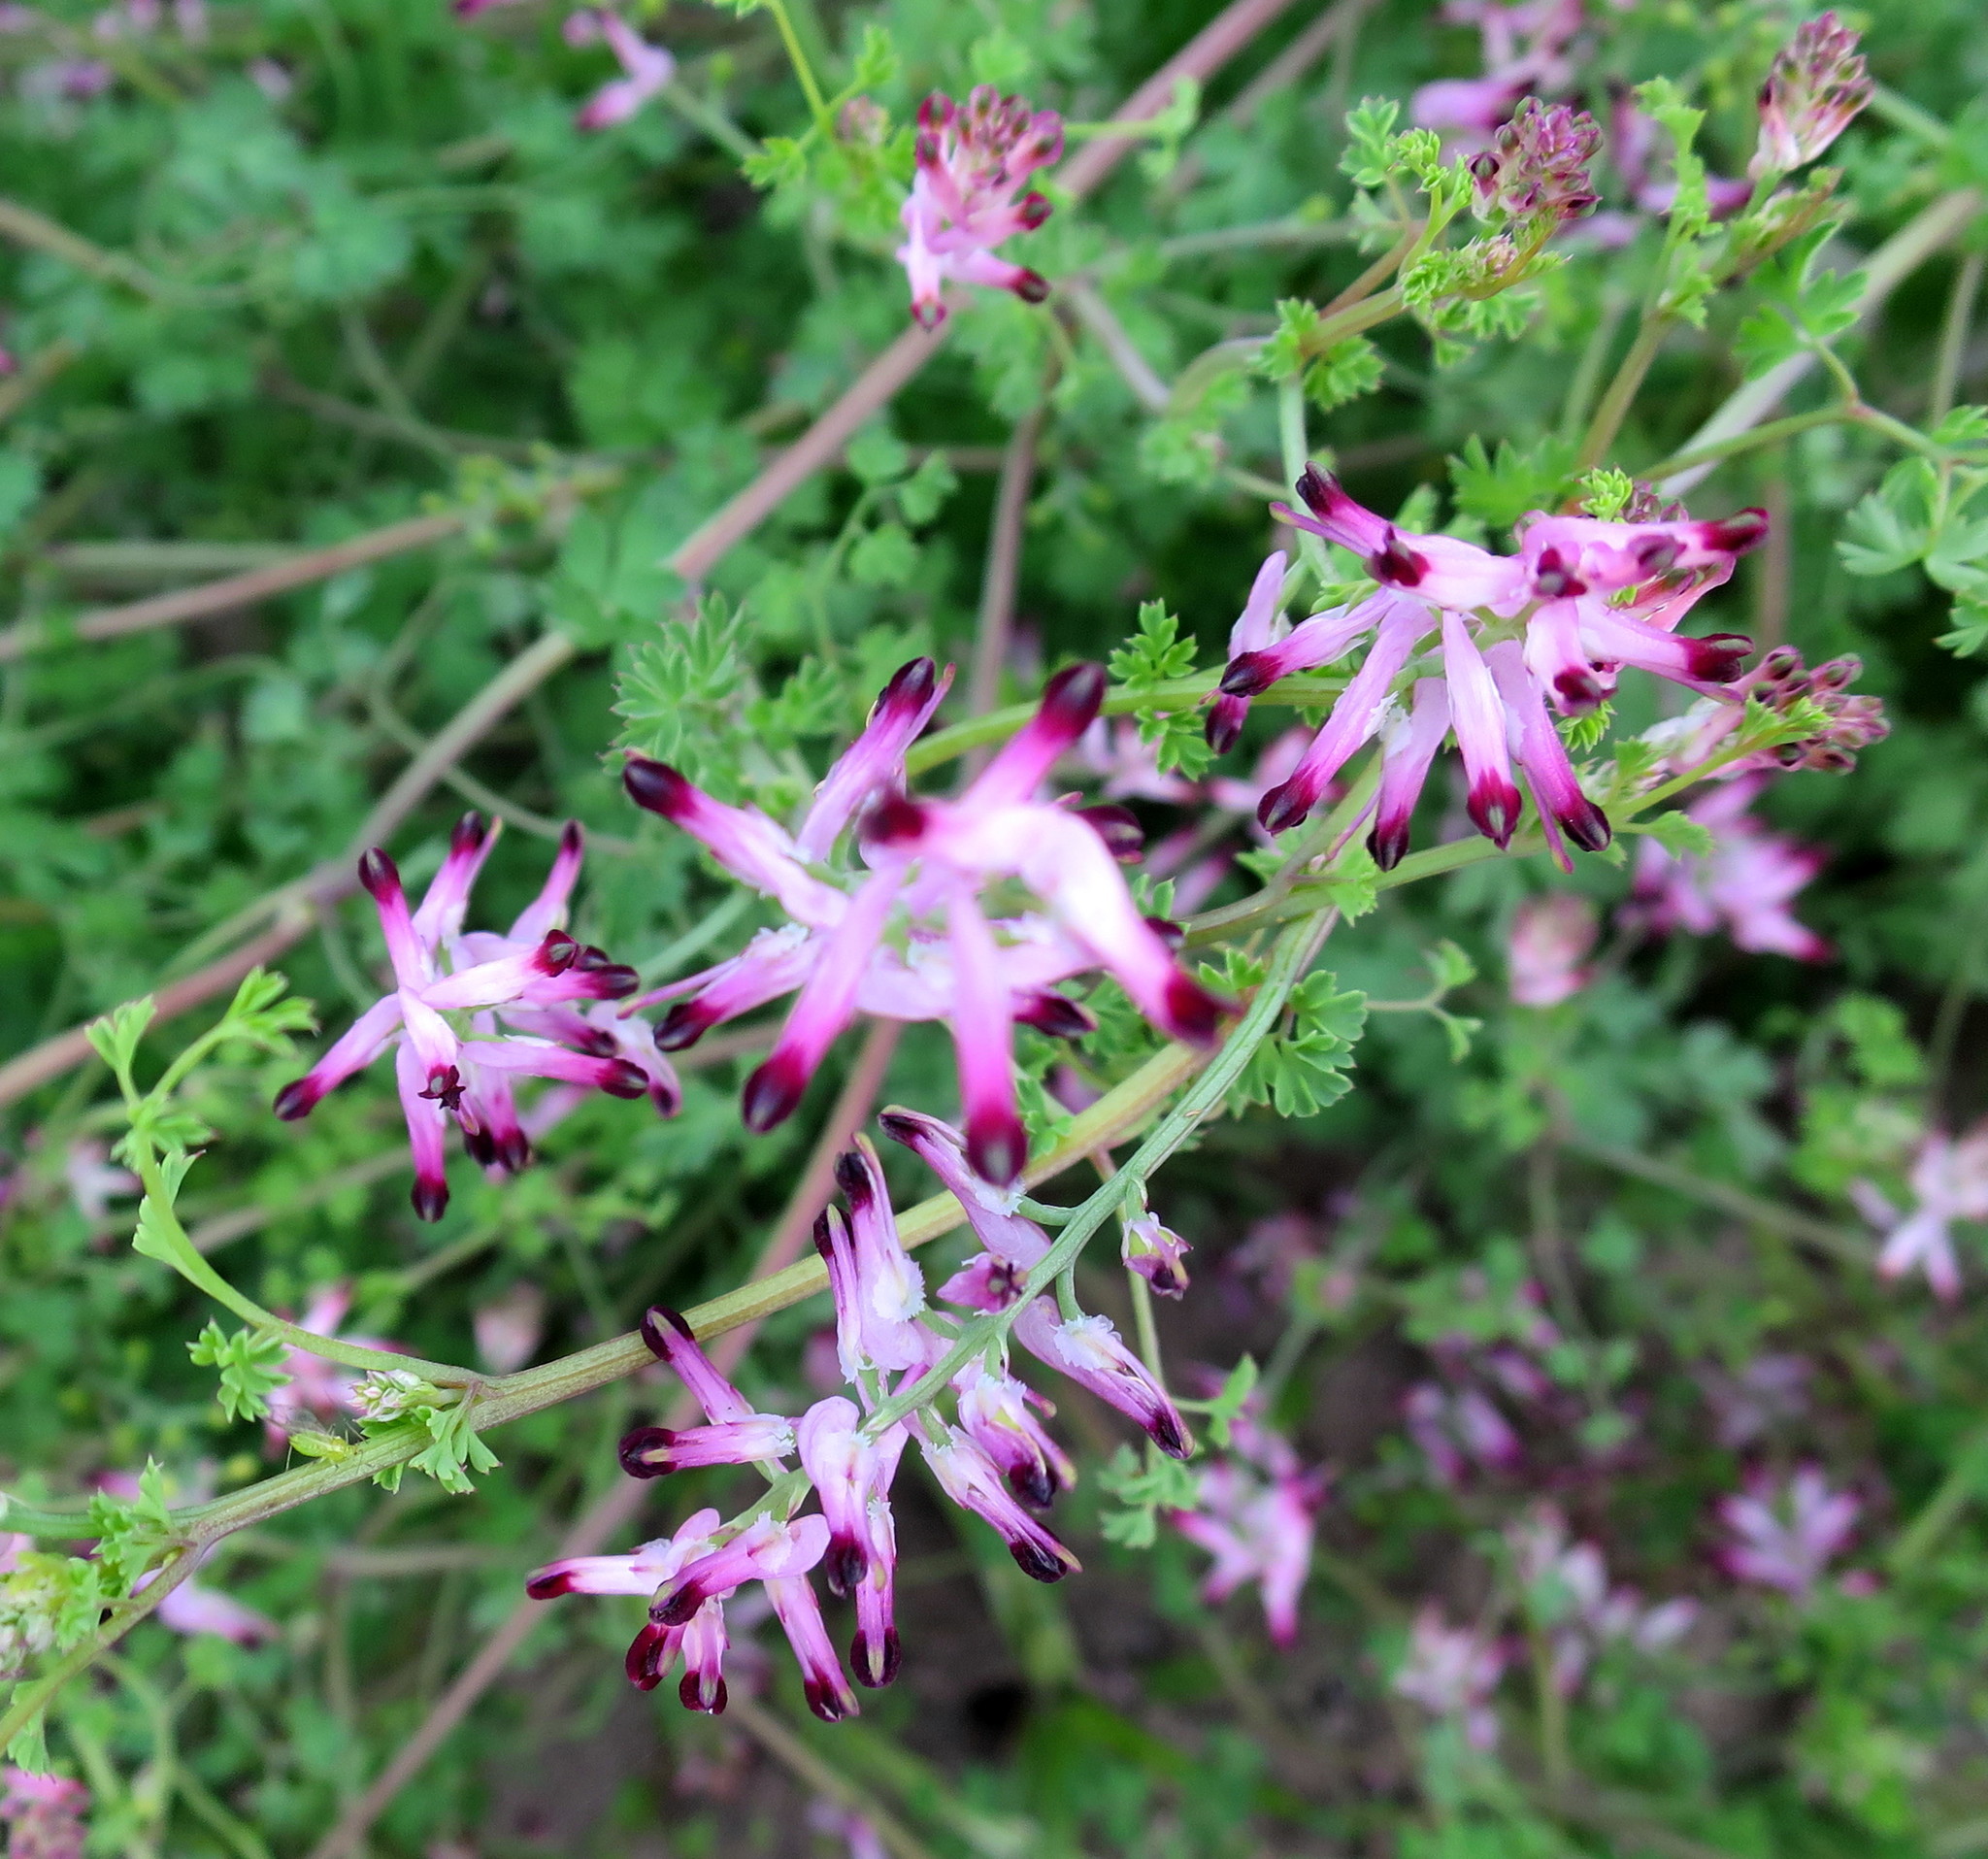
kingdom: Plantae
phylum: Tracheophyta
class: Magnoliopsida
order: Ranunculales
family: Papaveraceae
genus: Fumaria
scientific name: Fumaria muralis
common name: Common ramping-fumitory
